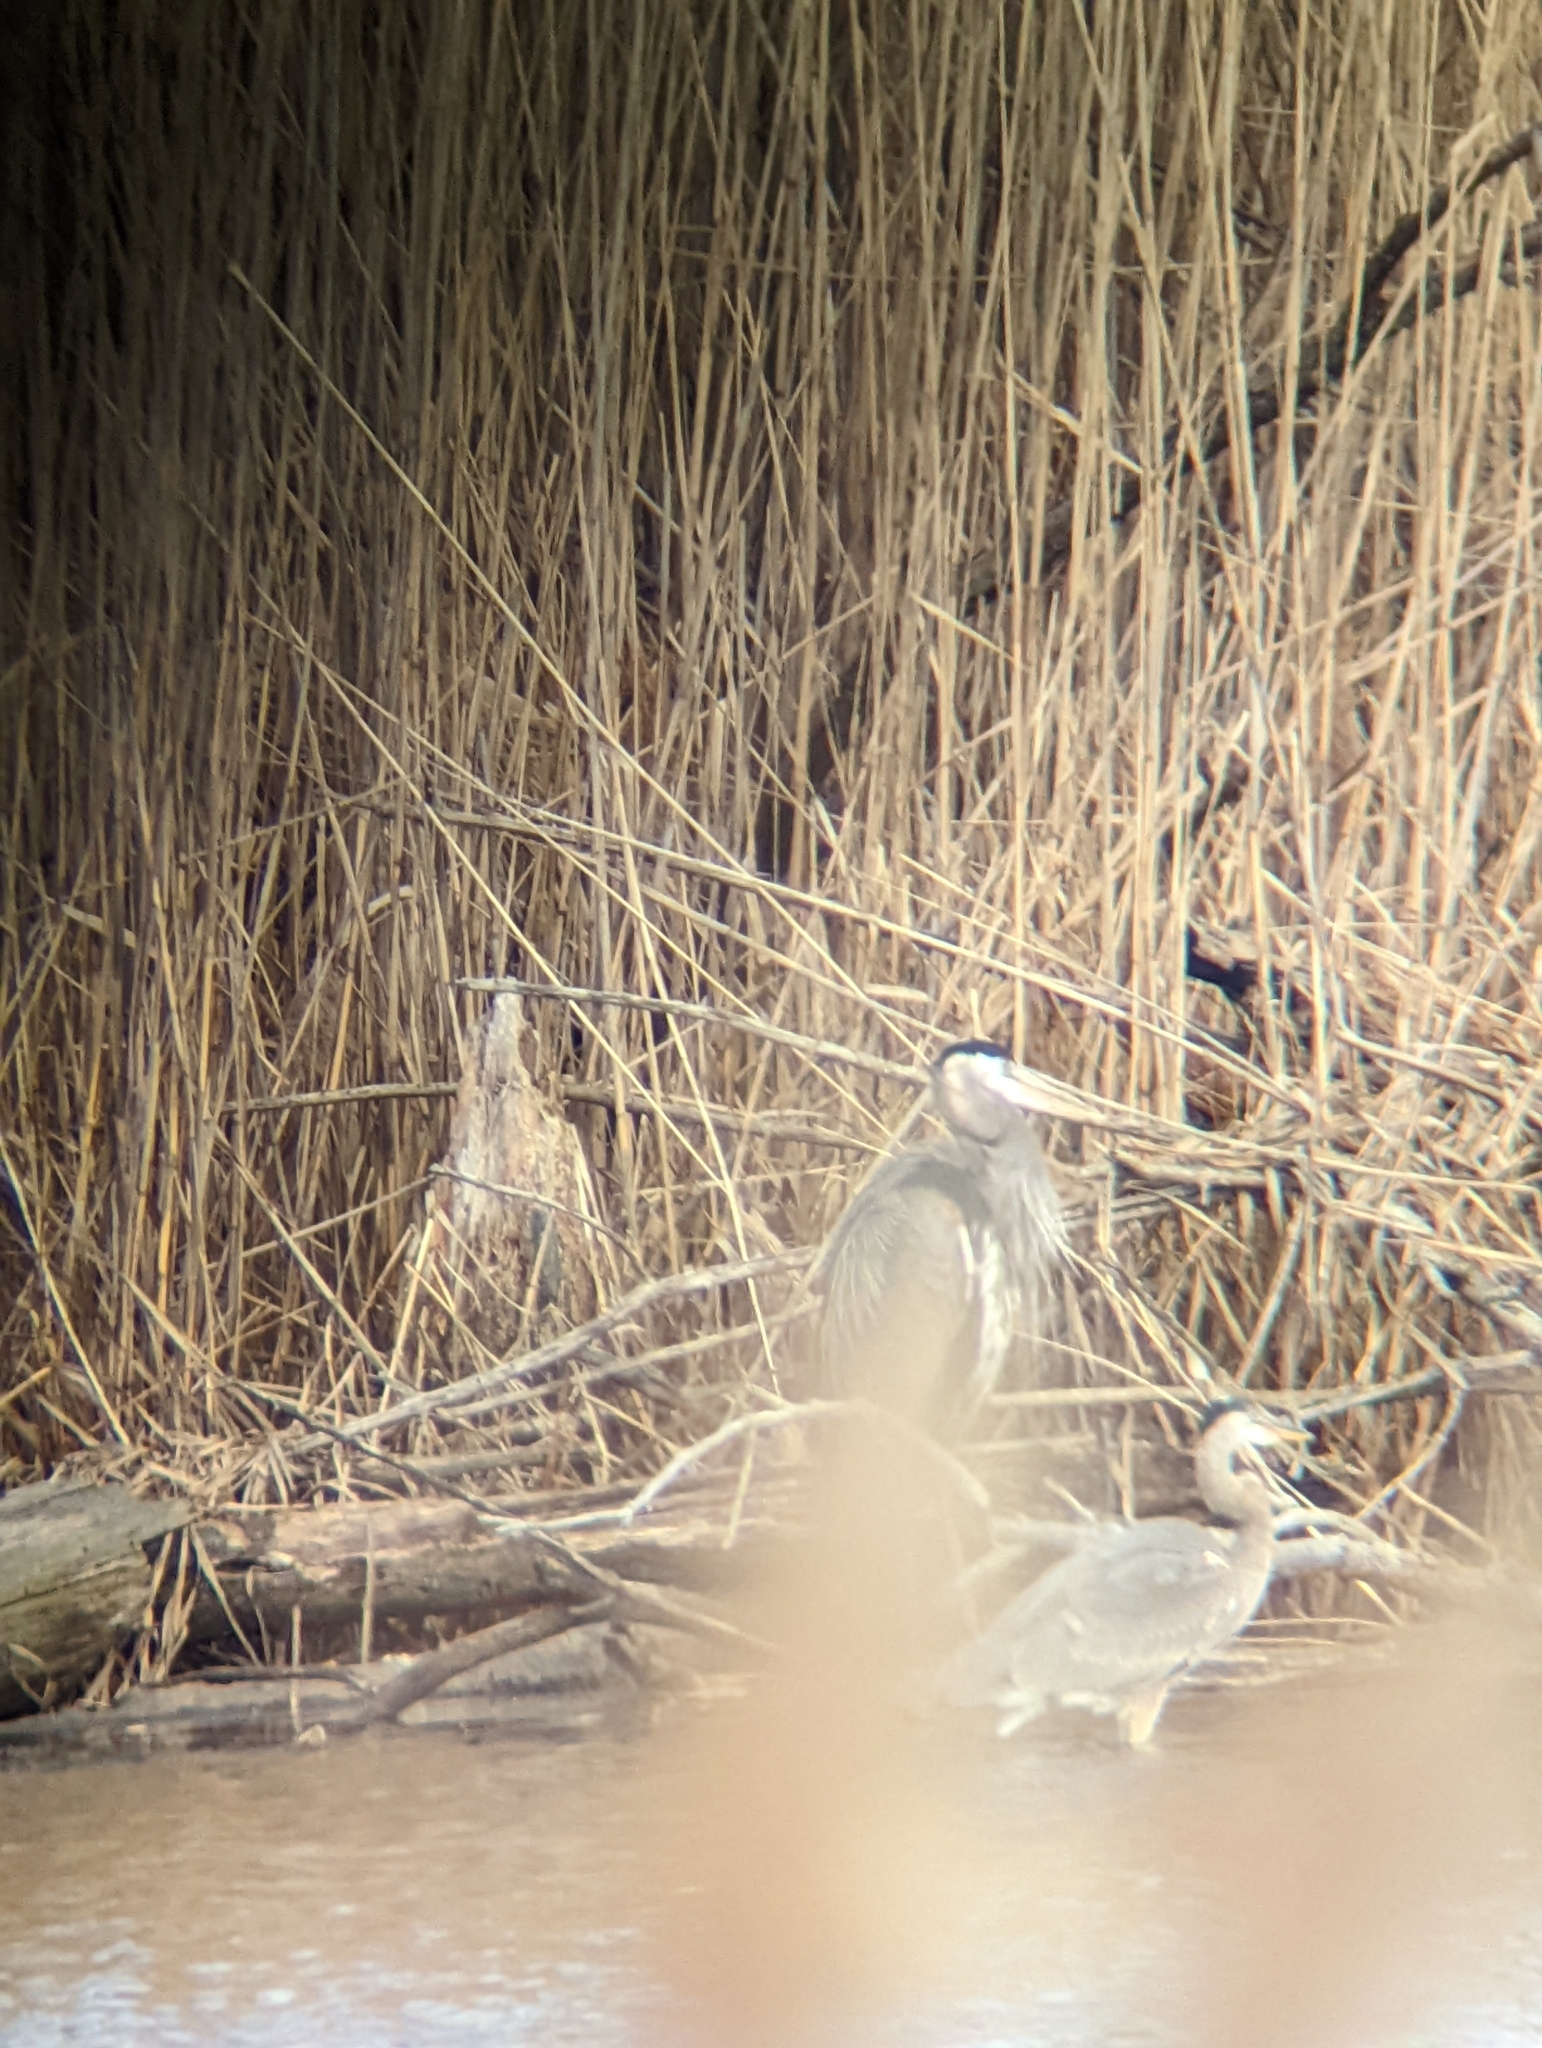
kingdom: Animalia
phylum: Chordata
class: Aves
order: Pelecaniformes
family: Ardeidae
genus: Ardea
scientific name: Ardea herodias
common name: Great blue heron
